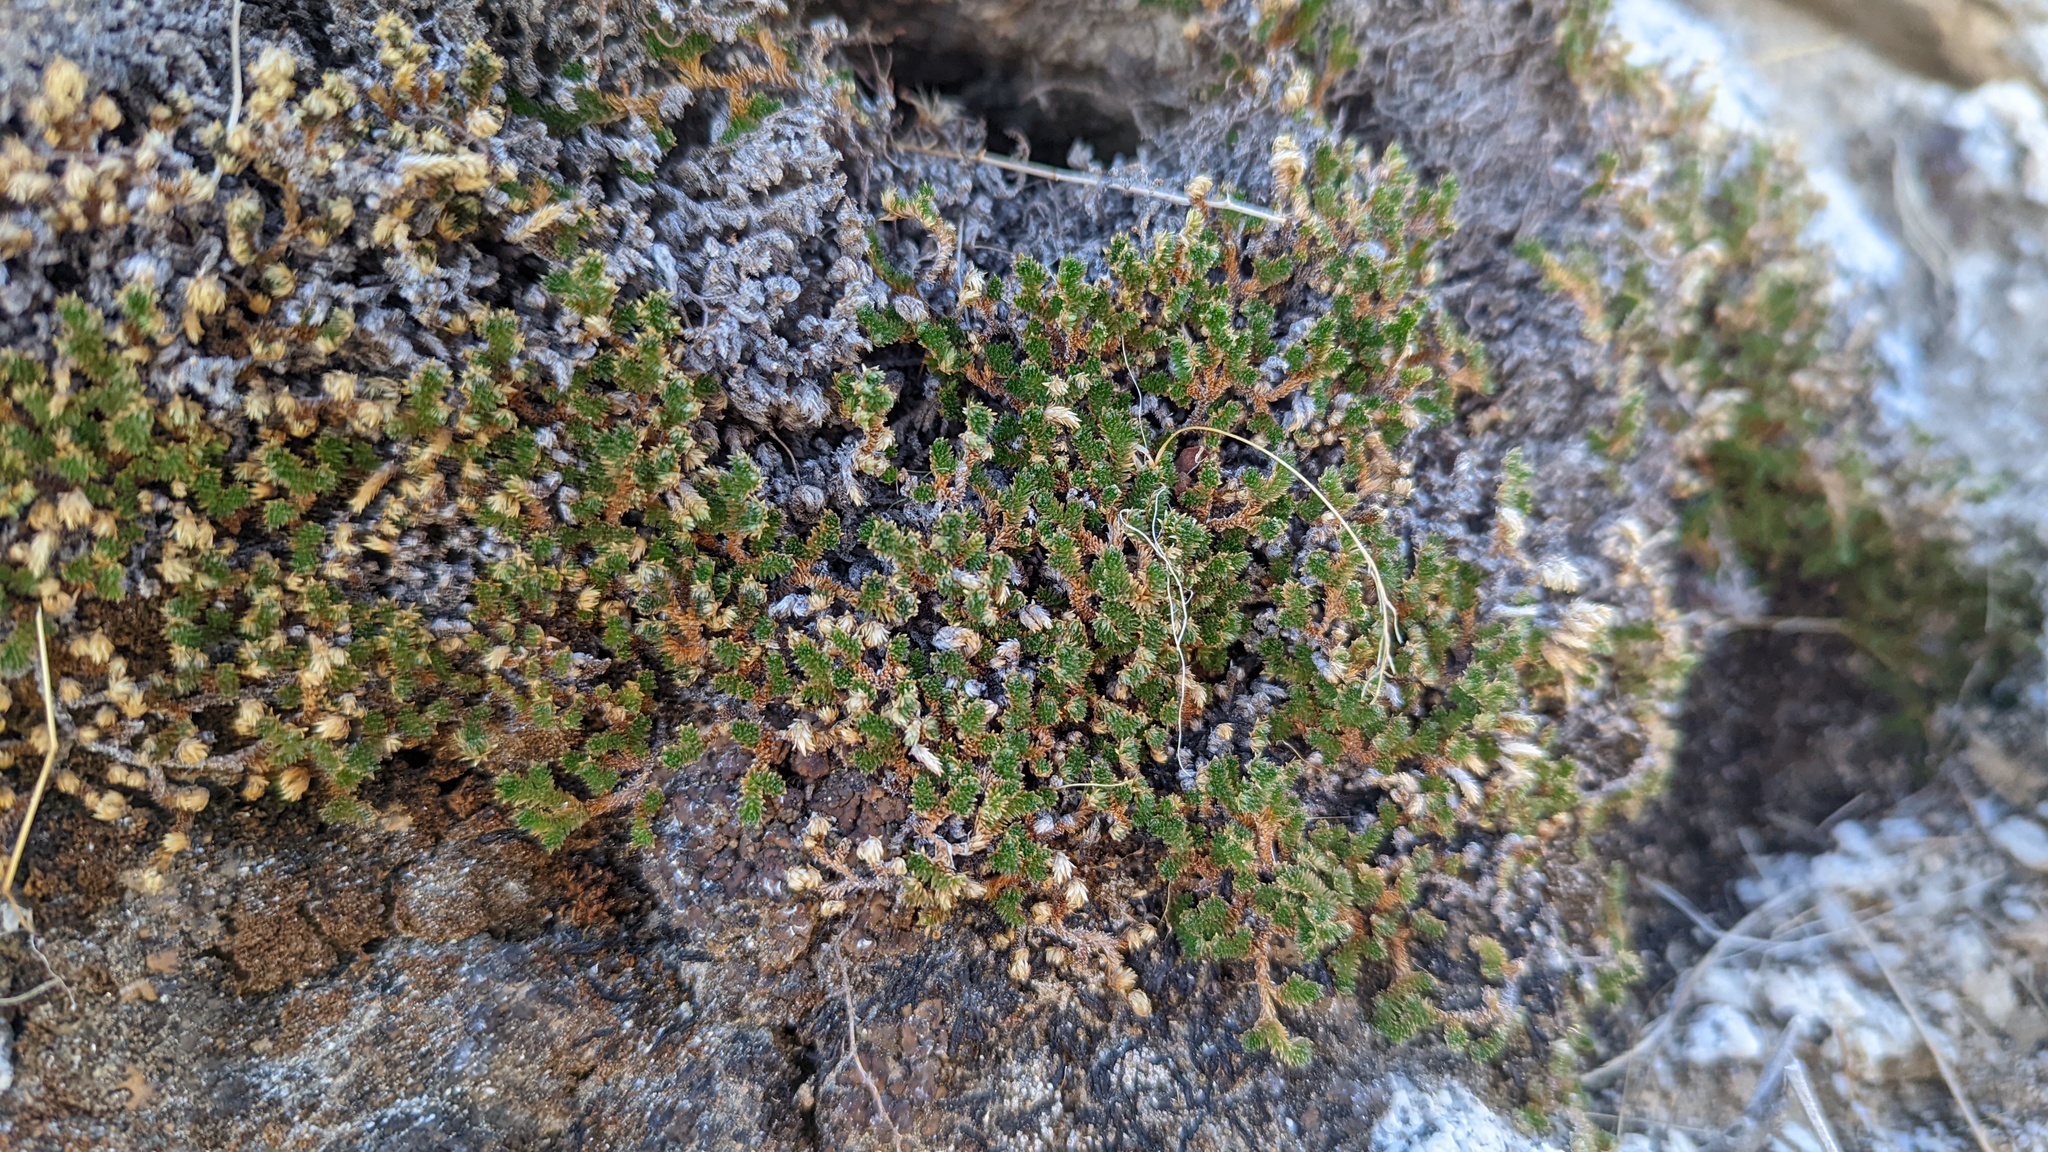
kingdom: Plantae
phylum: Tracheophyta
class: Lycopodiopsida
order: Selaginellales
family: Selaginellaceae
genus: Selaginella
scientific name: Selaginella eremophila
